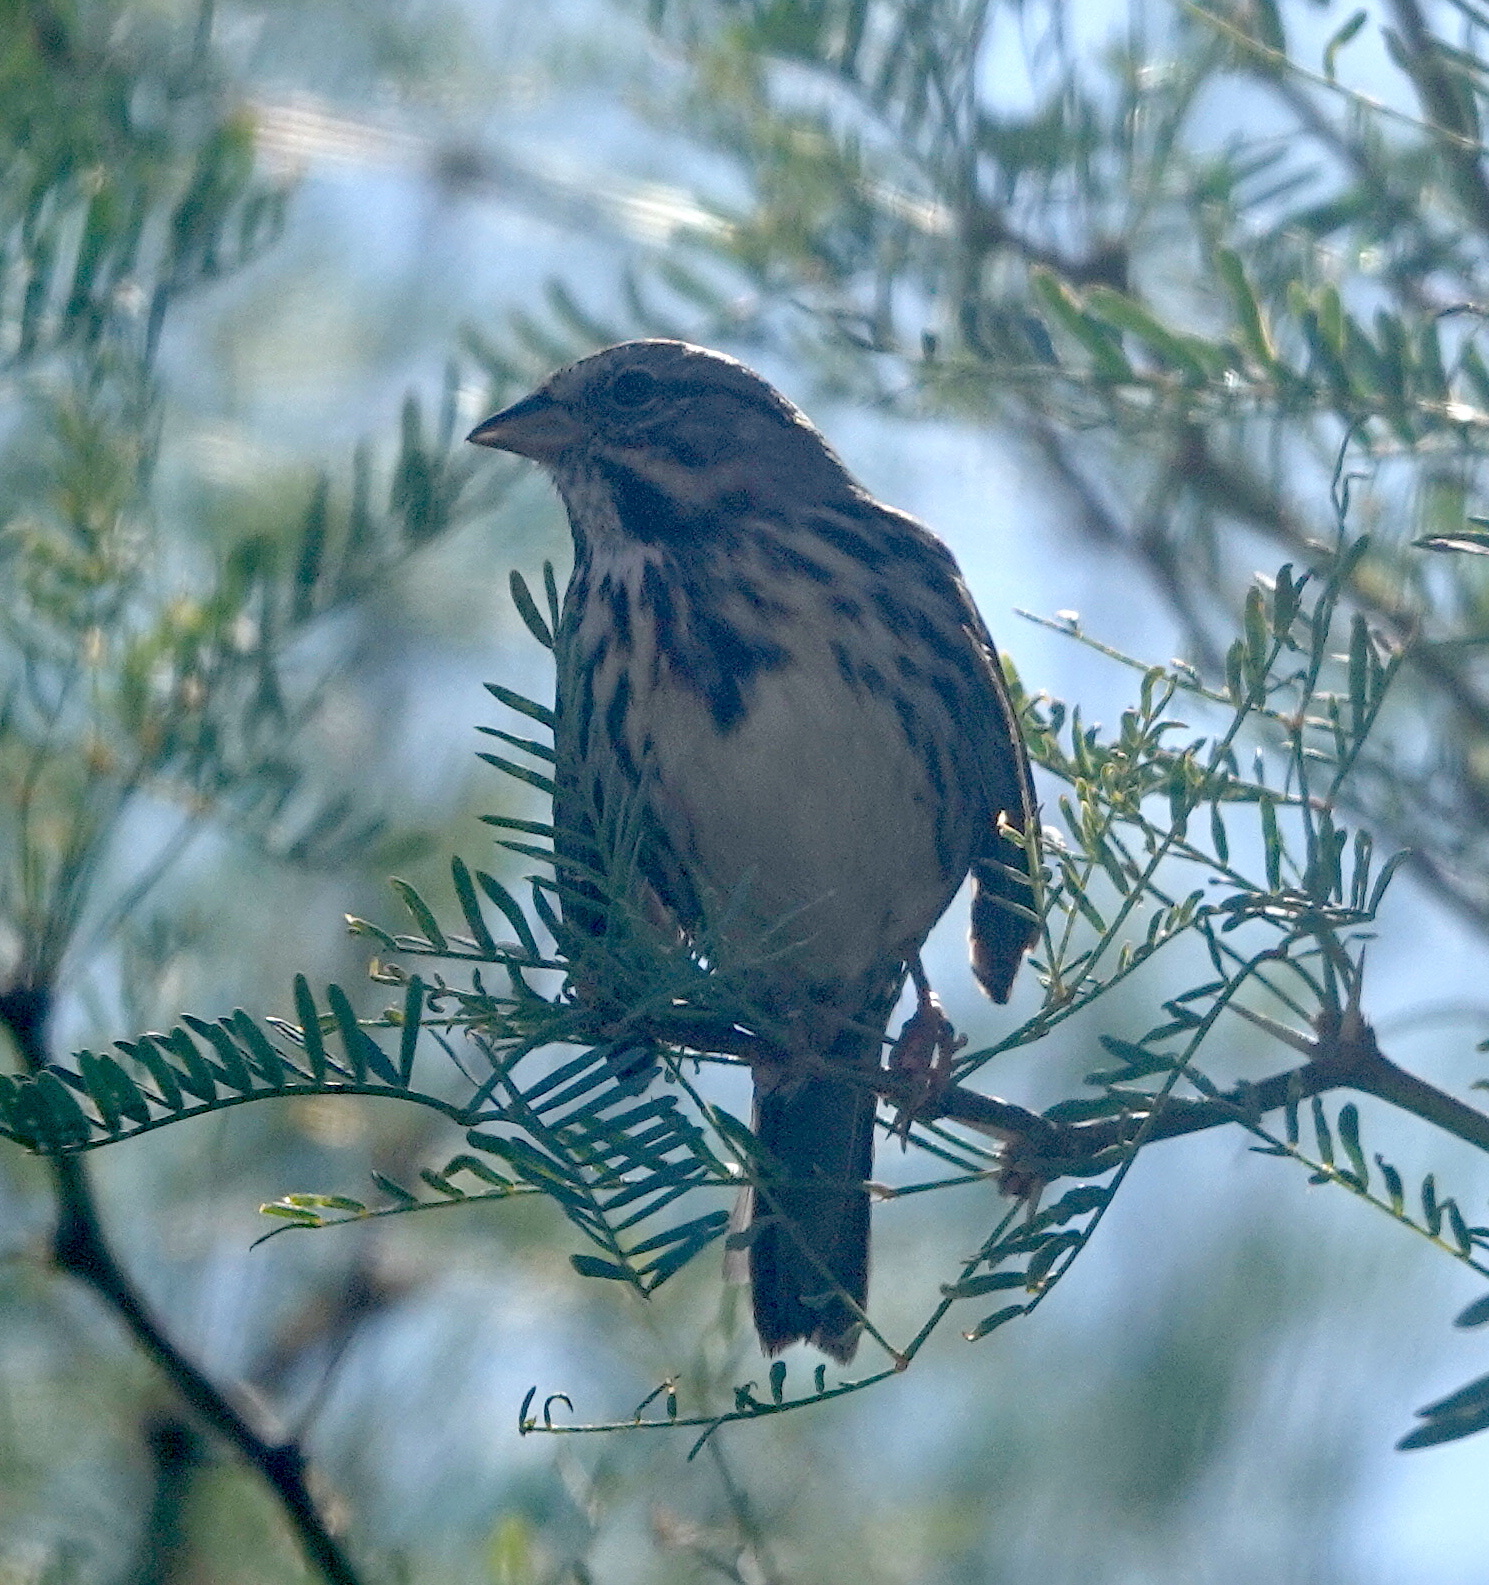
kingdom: Animalia
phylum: Chordata
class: Aves
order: Passeriformes
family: Passerellidae
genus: Melospiza
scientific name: Melospiza melodia
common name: Song sparrow
